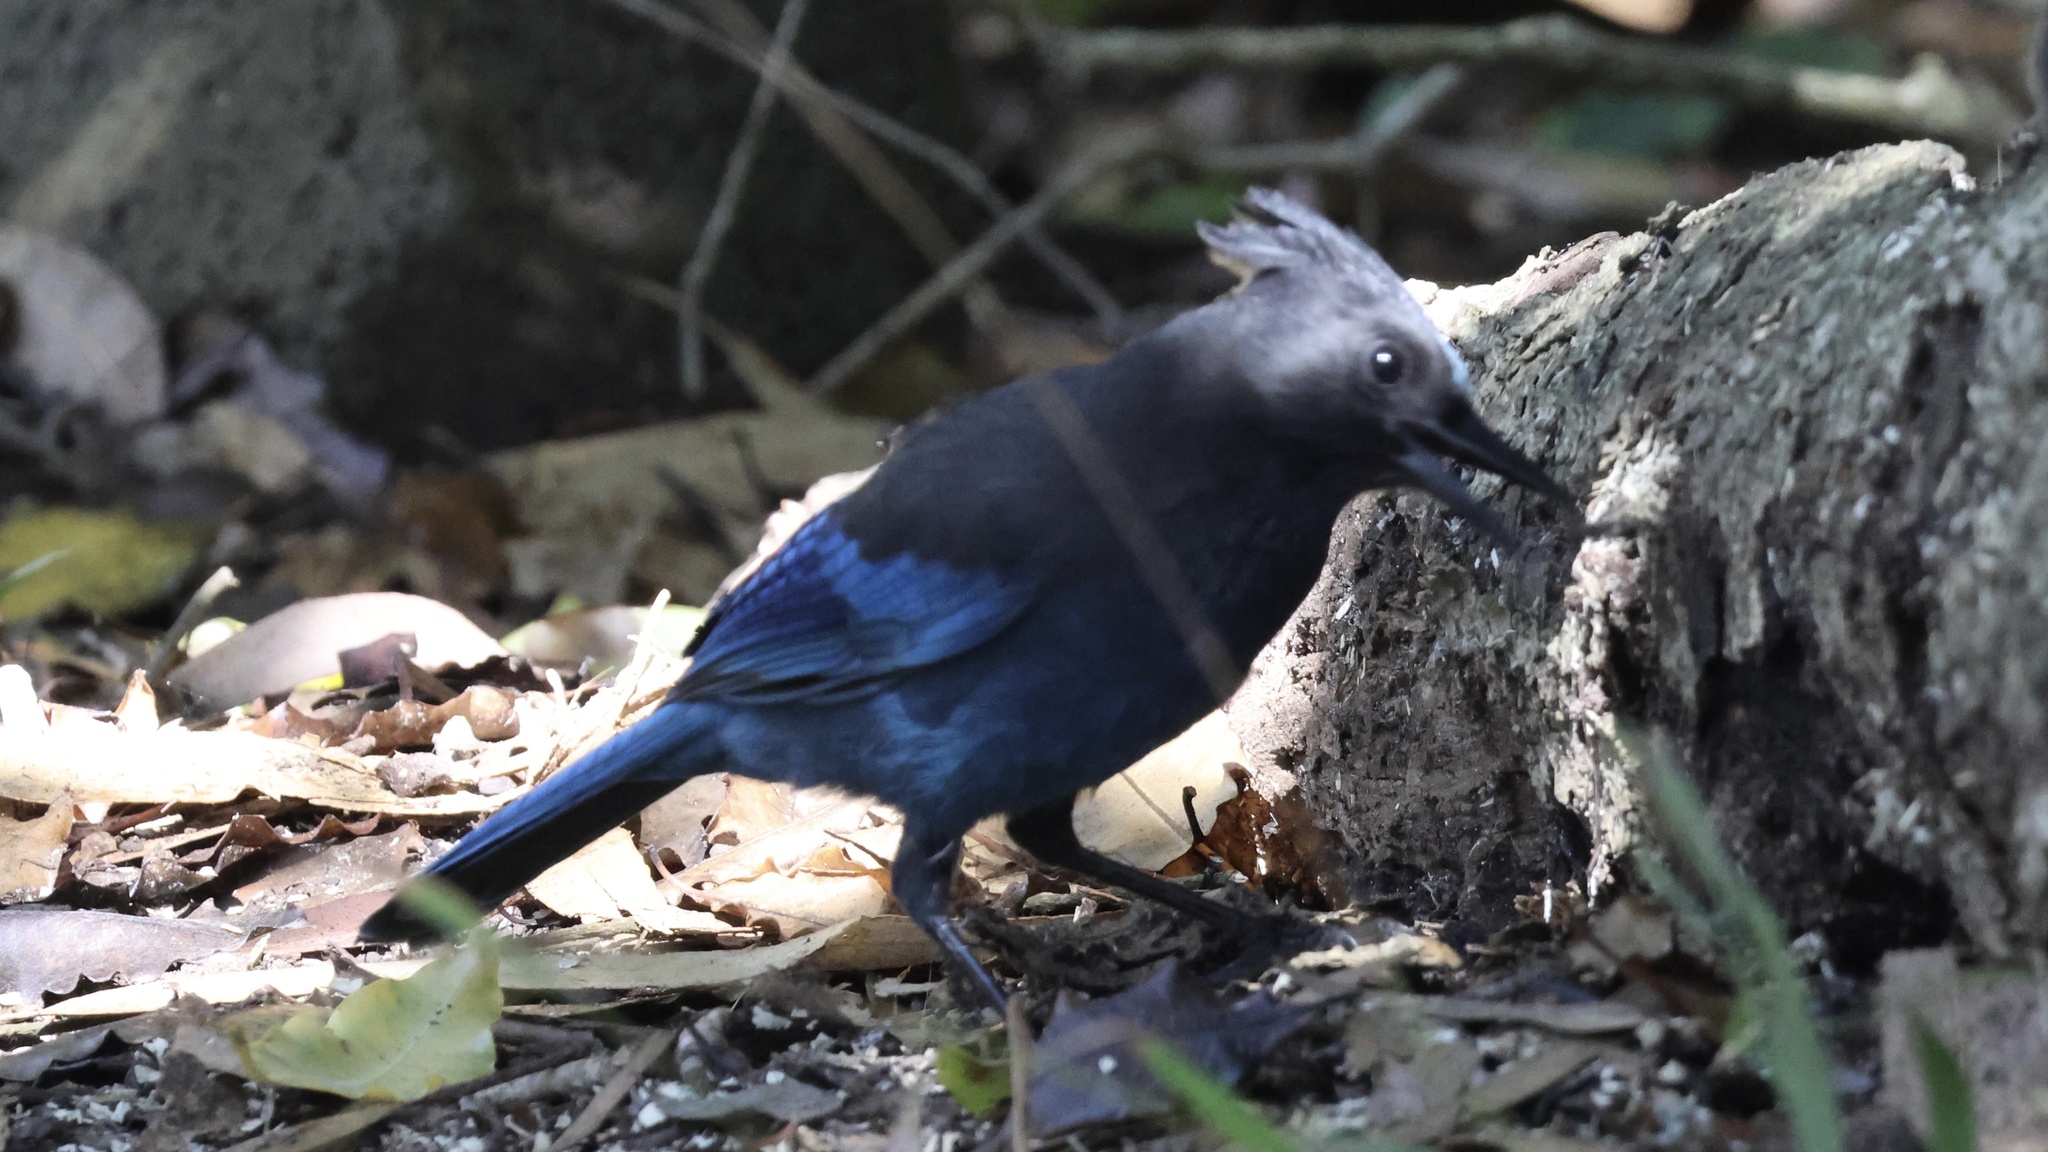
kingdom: Animalia
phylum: Chordata
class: Aves
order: Passeriformes
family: Corvidae
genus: Cyanocitta
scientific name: Cyanocitta stelleri
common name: Steller's jay
